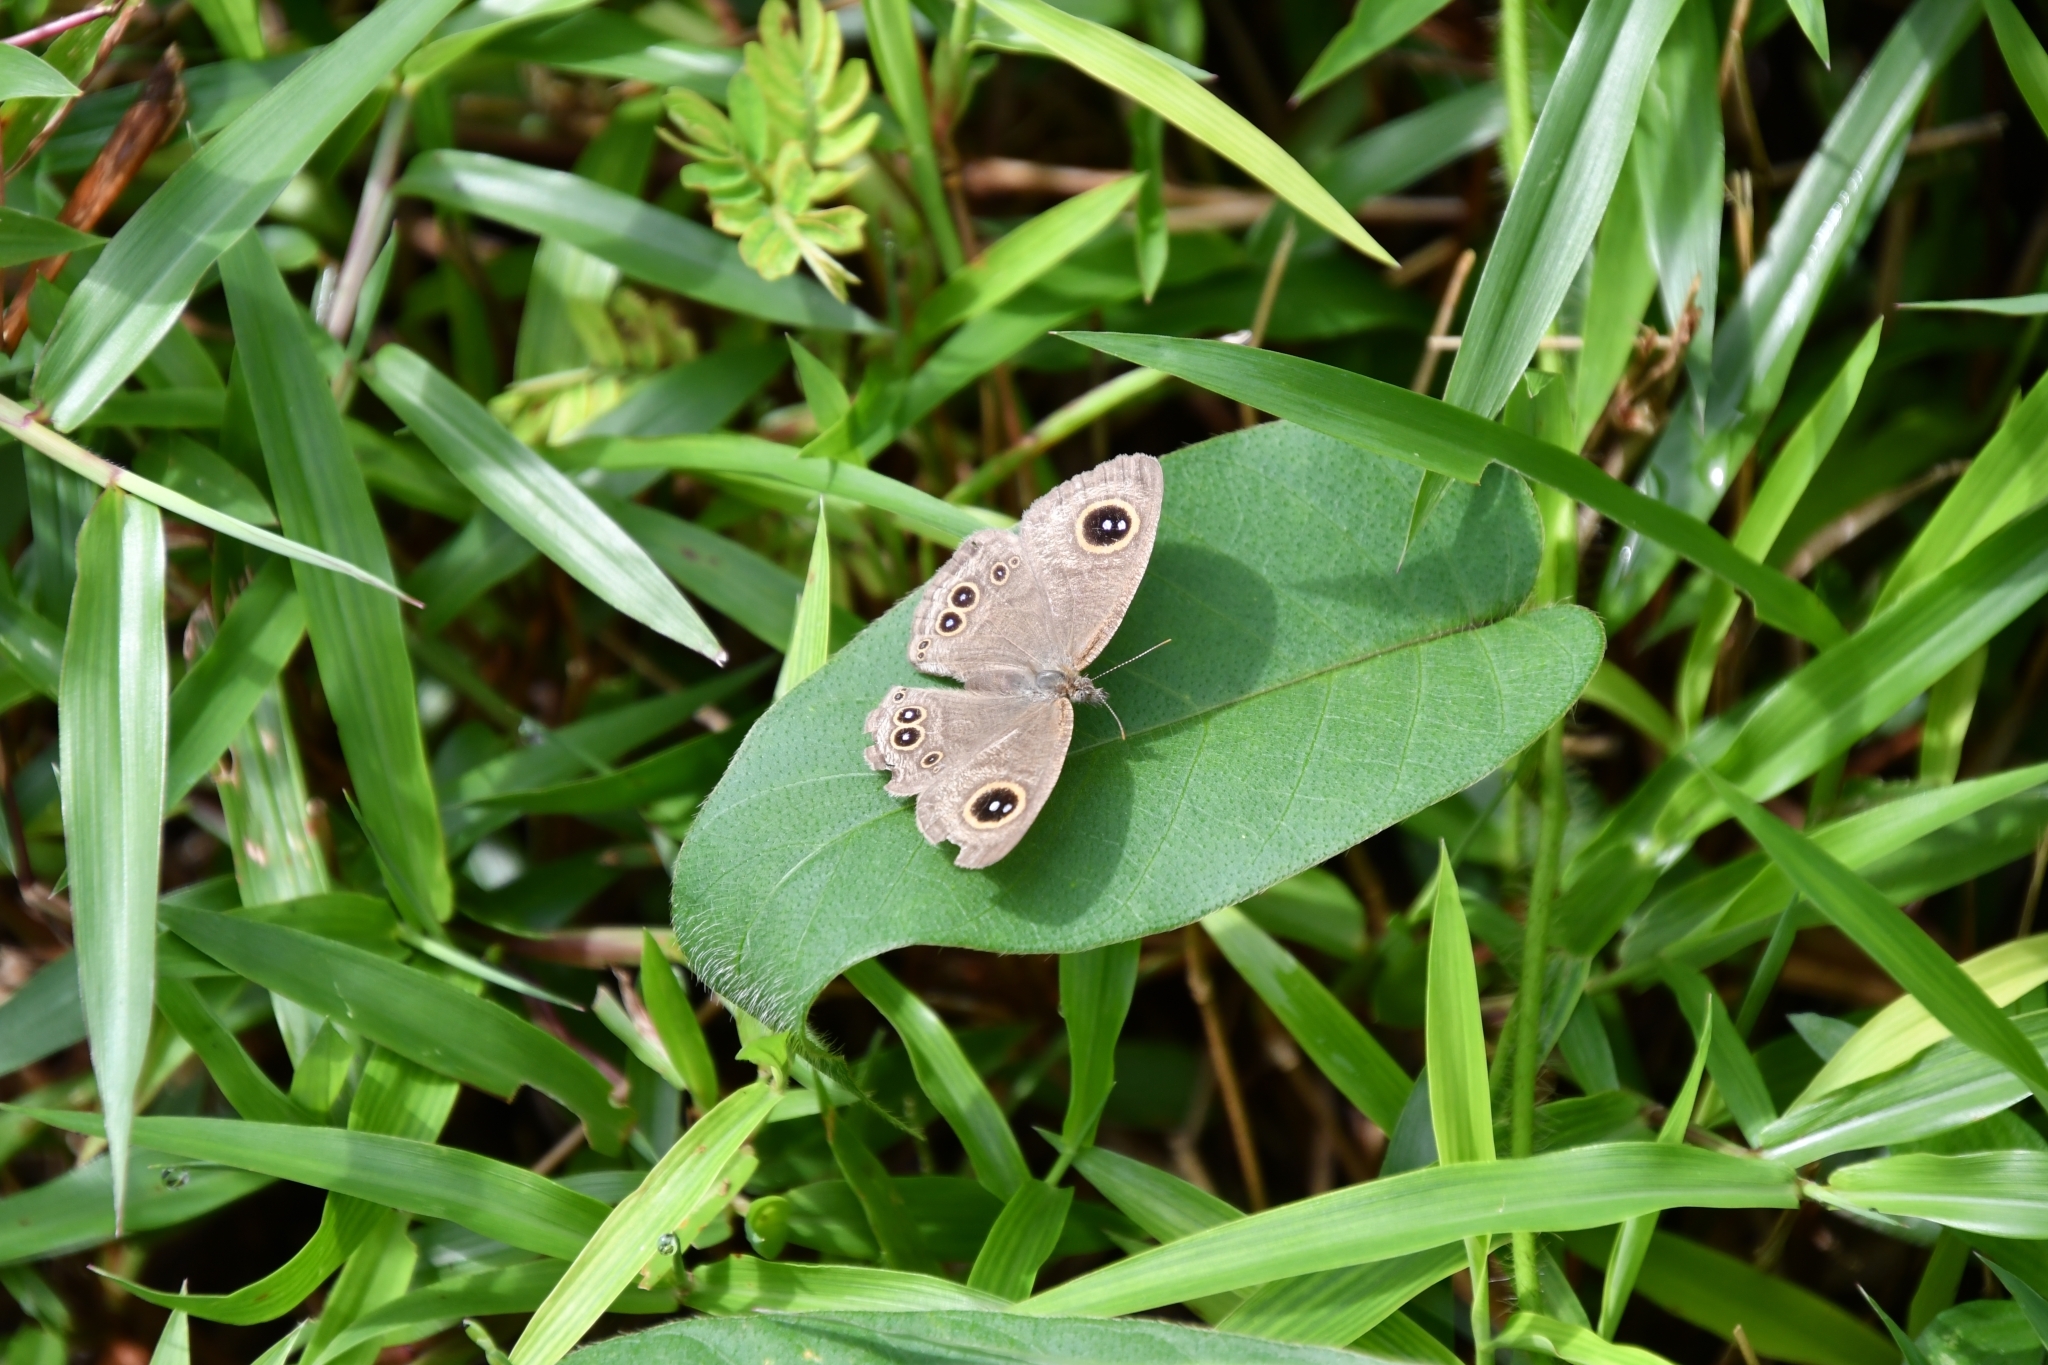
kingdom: Animalia
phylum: Arthropoda
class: Insecta
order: Lepidoptera
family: Nymphalidae
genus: Ypthima
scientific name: Ypthima baldus
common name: Common five-ring
